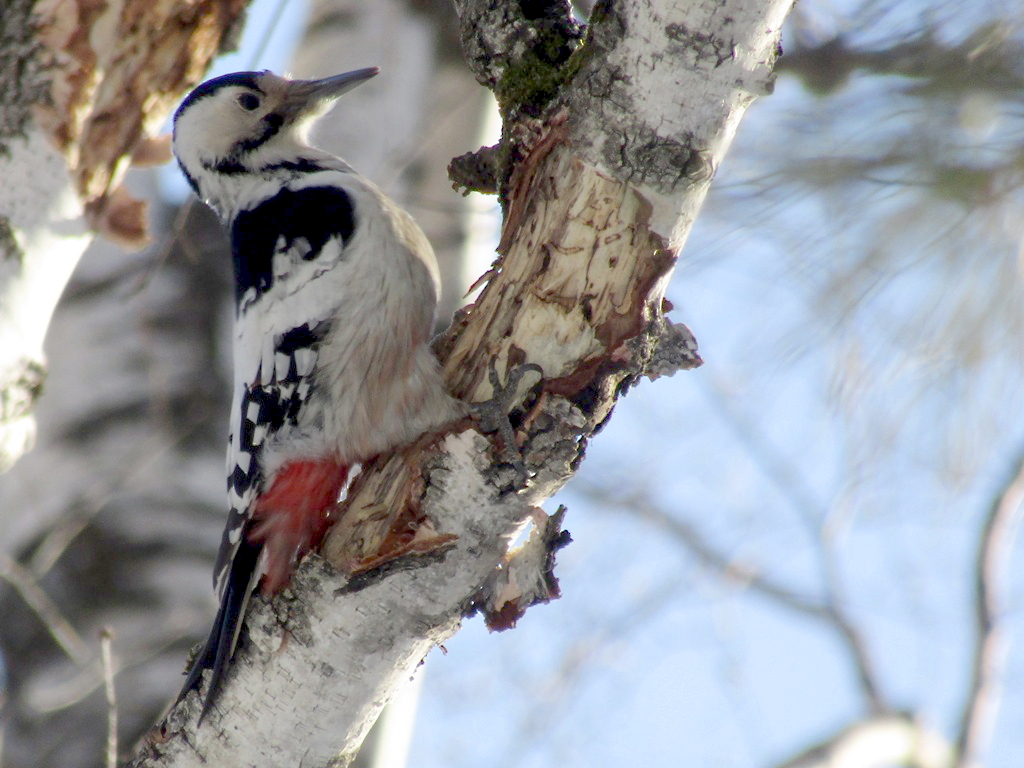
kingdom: Animalia
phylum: Chordata
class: Aves
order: Piciformes
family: Picidae
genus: Dendrocopos
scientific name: Dendrocopos leucotos
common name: White-backed woodpecker
